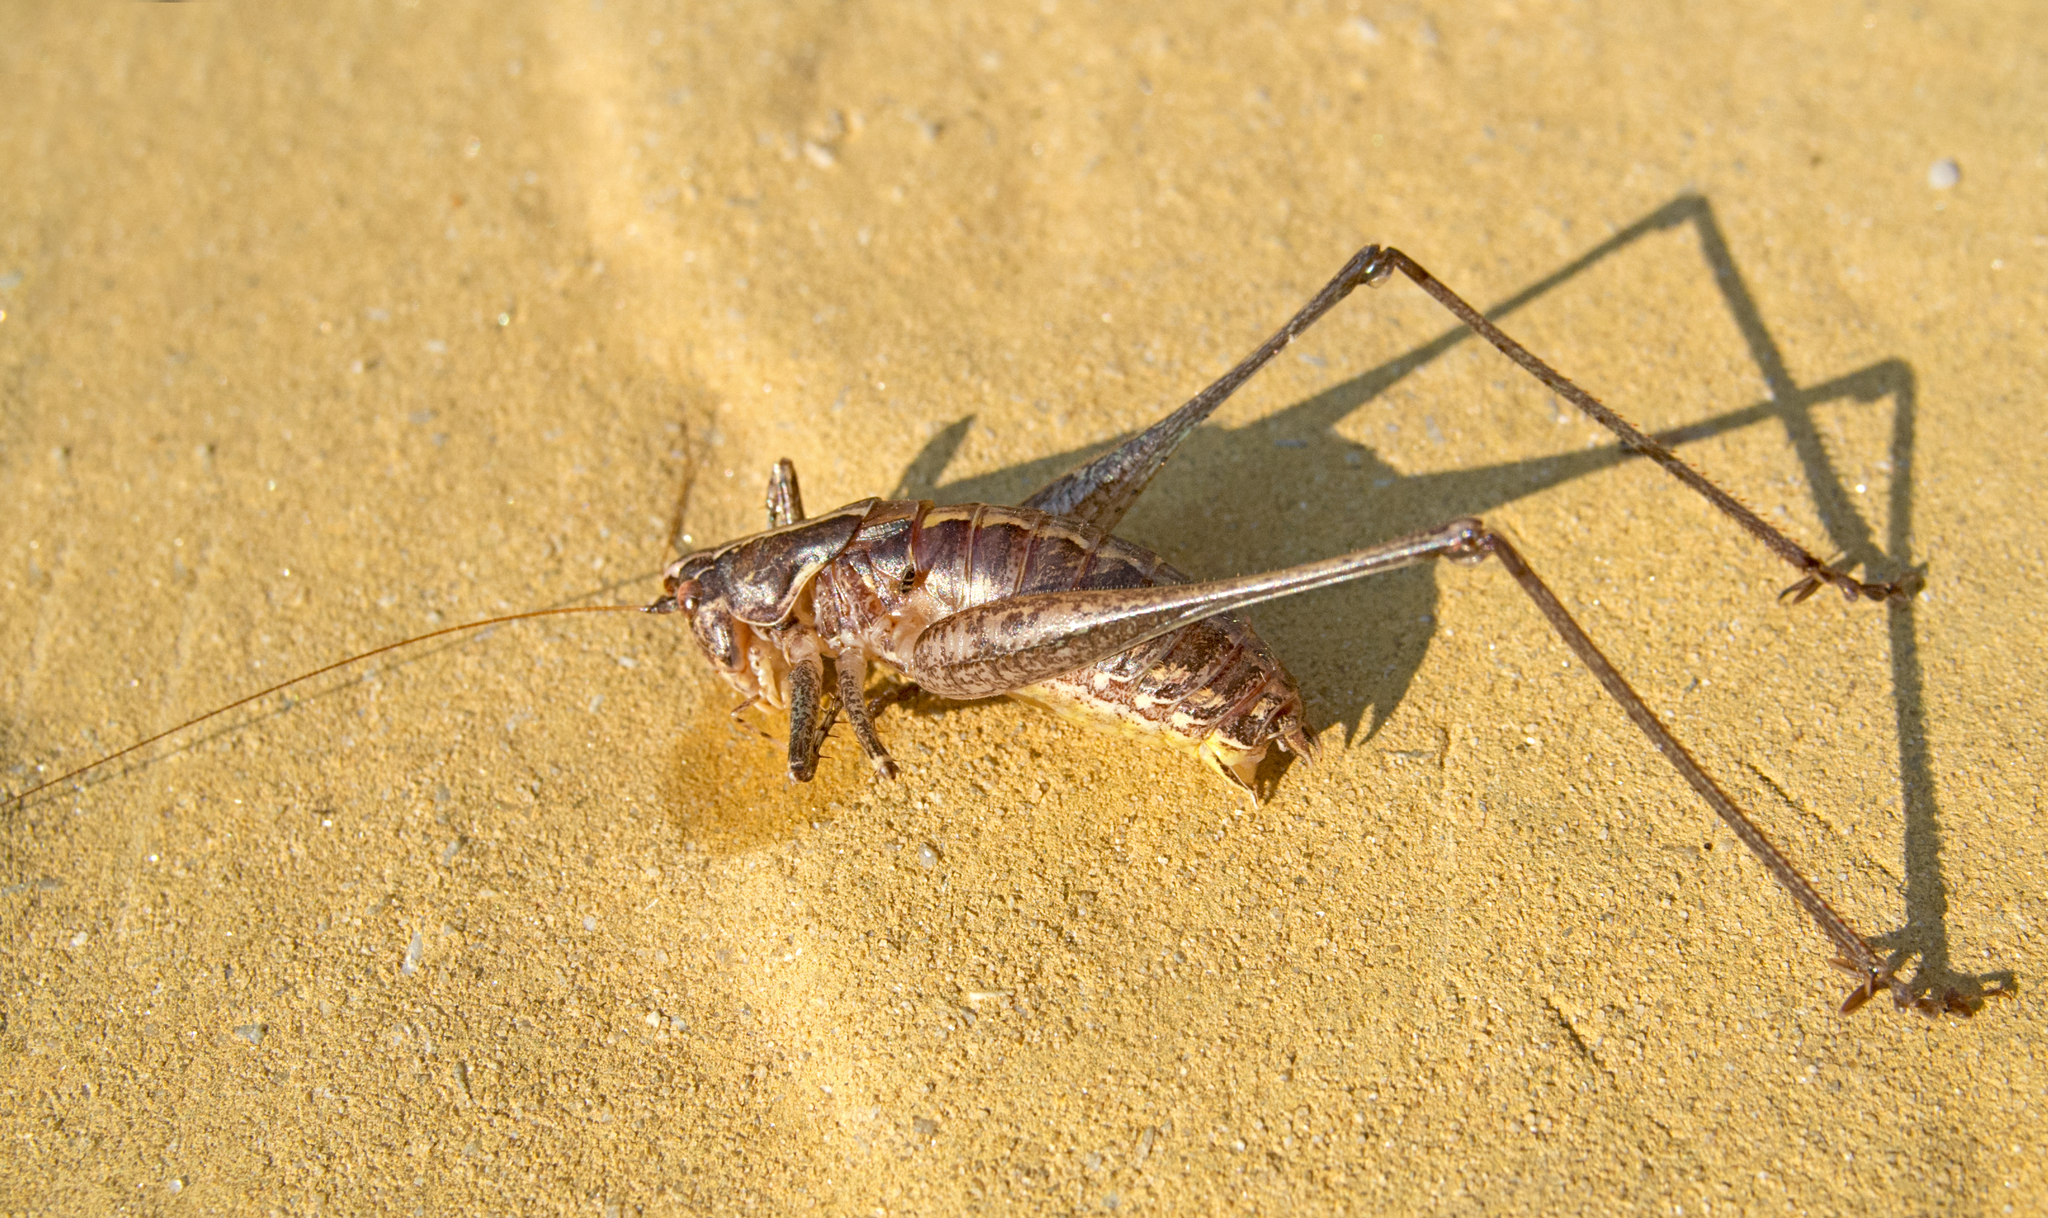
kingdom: Animalia
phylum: Arthropoda
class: Insecta
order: Orthoptera
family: Tettigoniidae
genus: Rhacocleis
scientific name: Rhacocleis germanica
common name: Mediterranean bush-cricket
